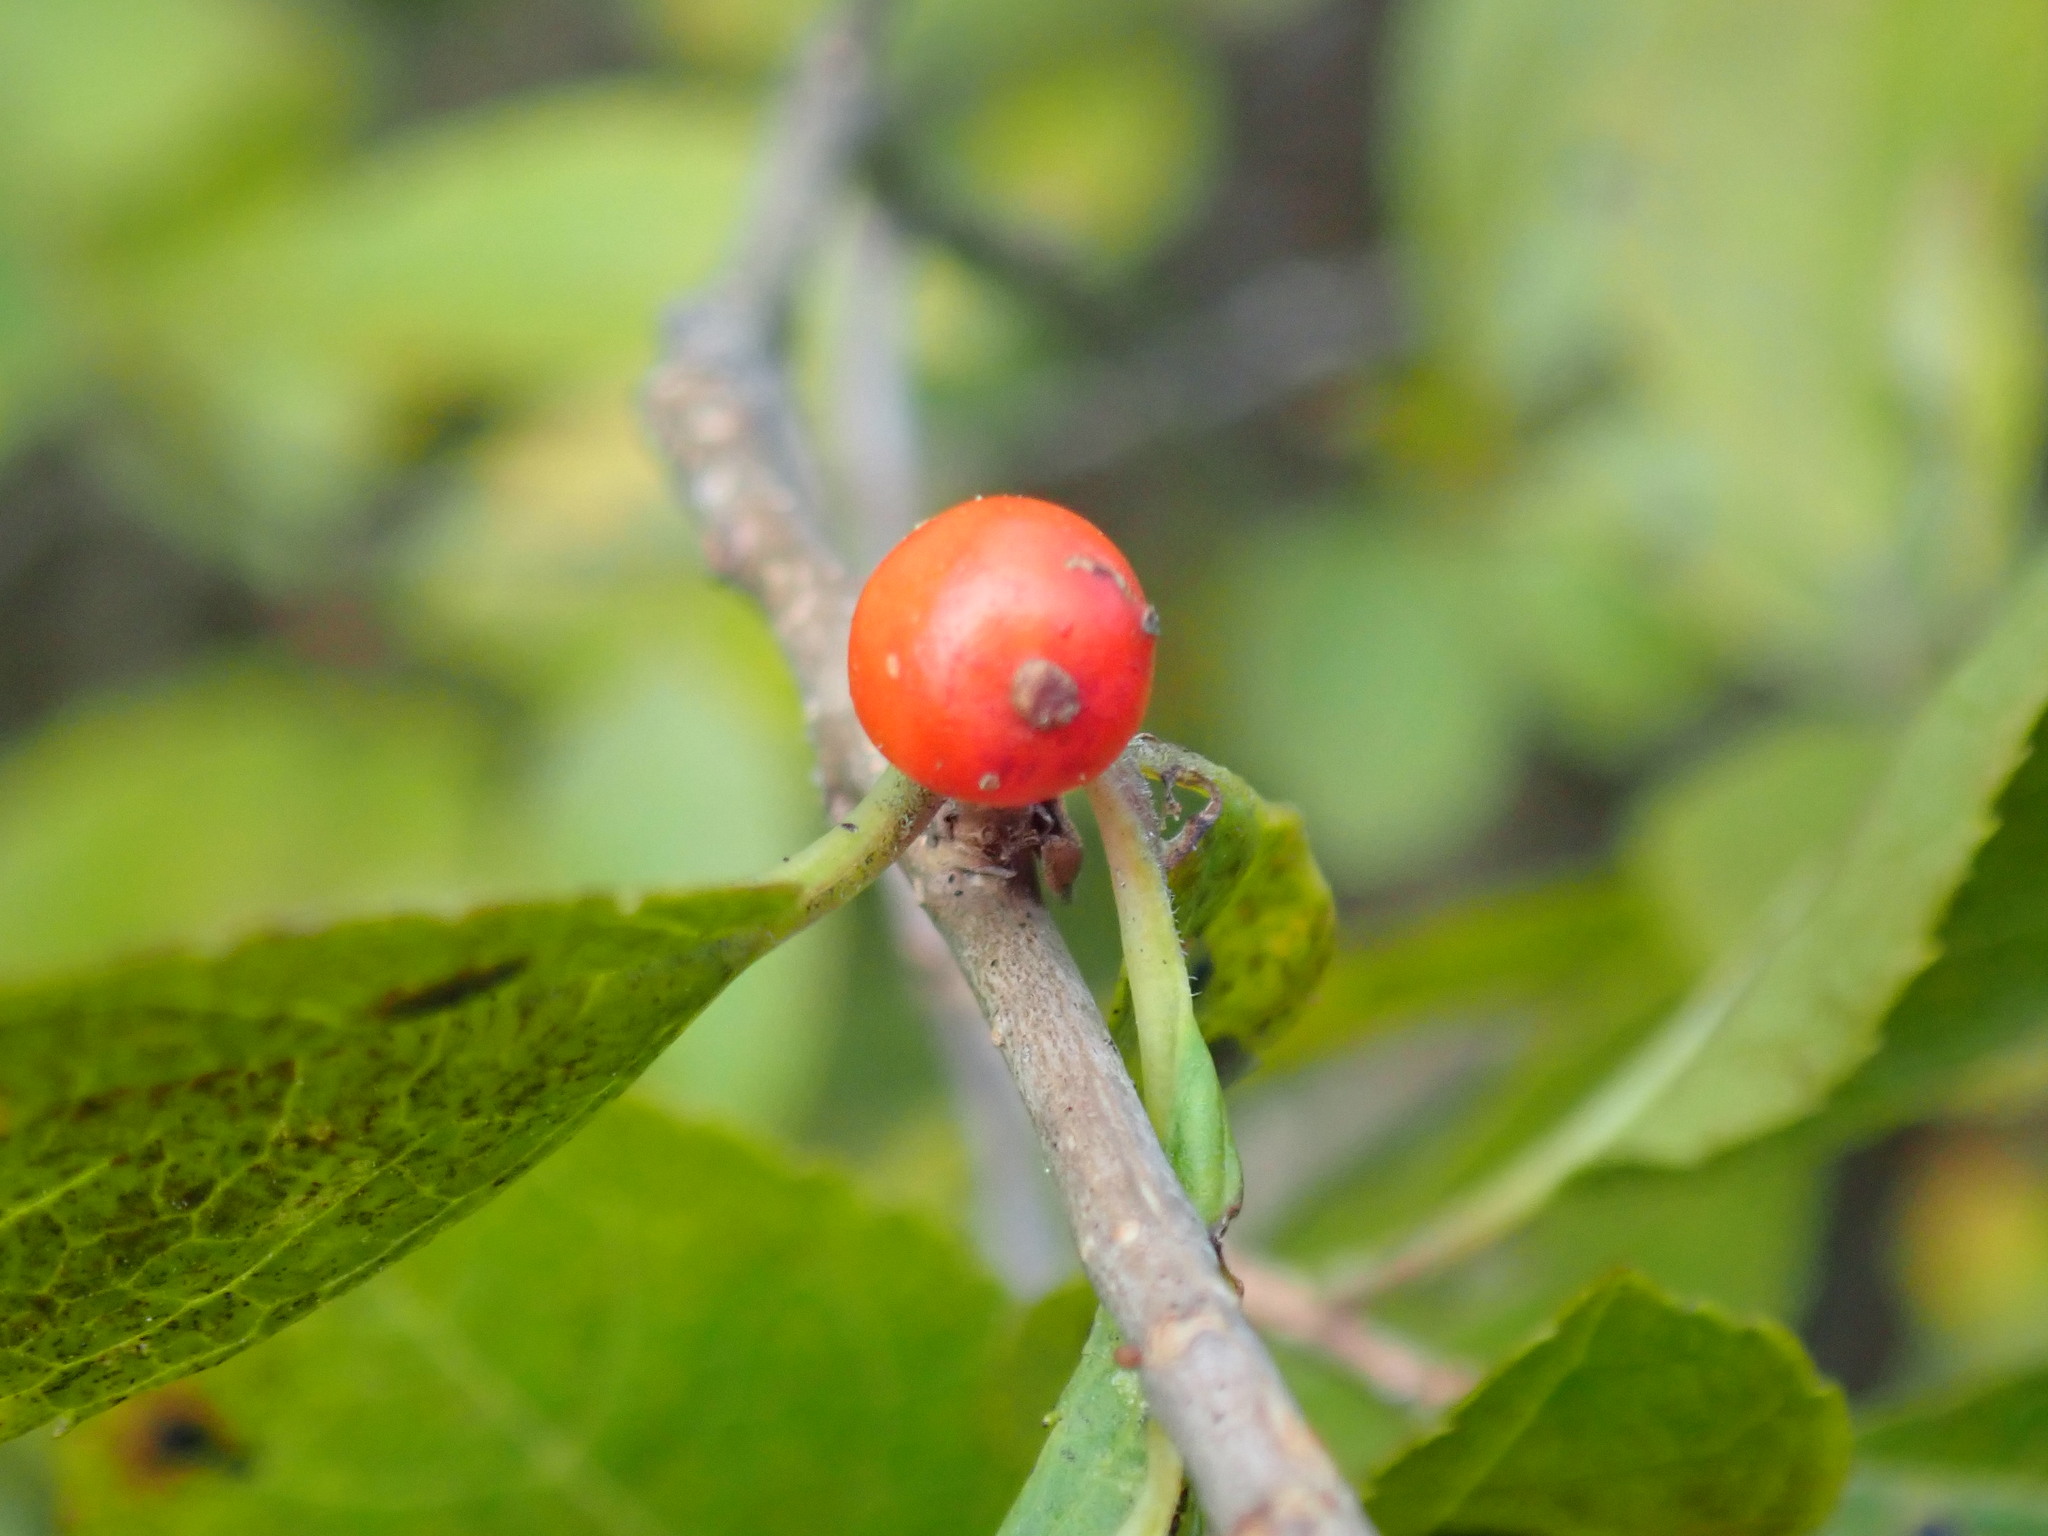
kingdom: Plantae
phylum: Tracheophyta
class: Magnoliopsida
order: Aquifoliales
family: Aquifoliaceae
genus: Ilex
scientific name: Ilex verticillata
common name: Virginia winterberry
